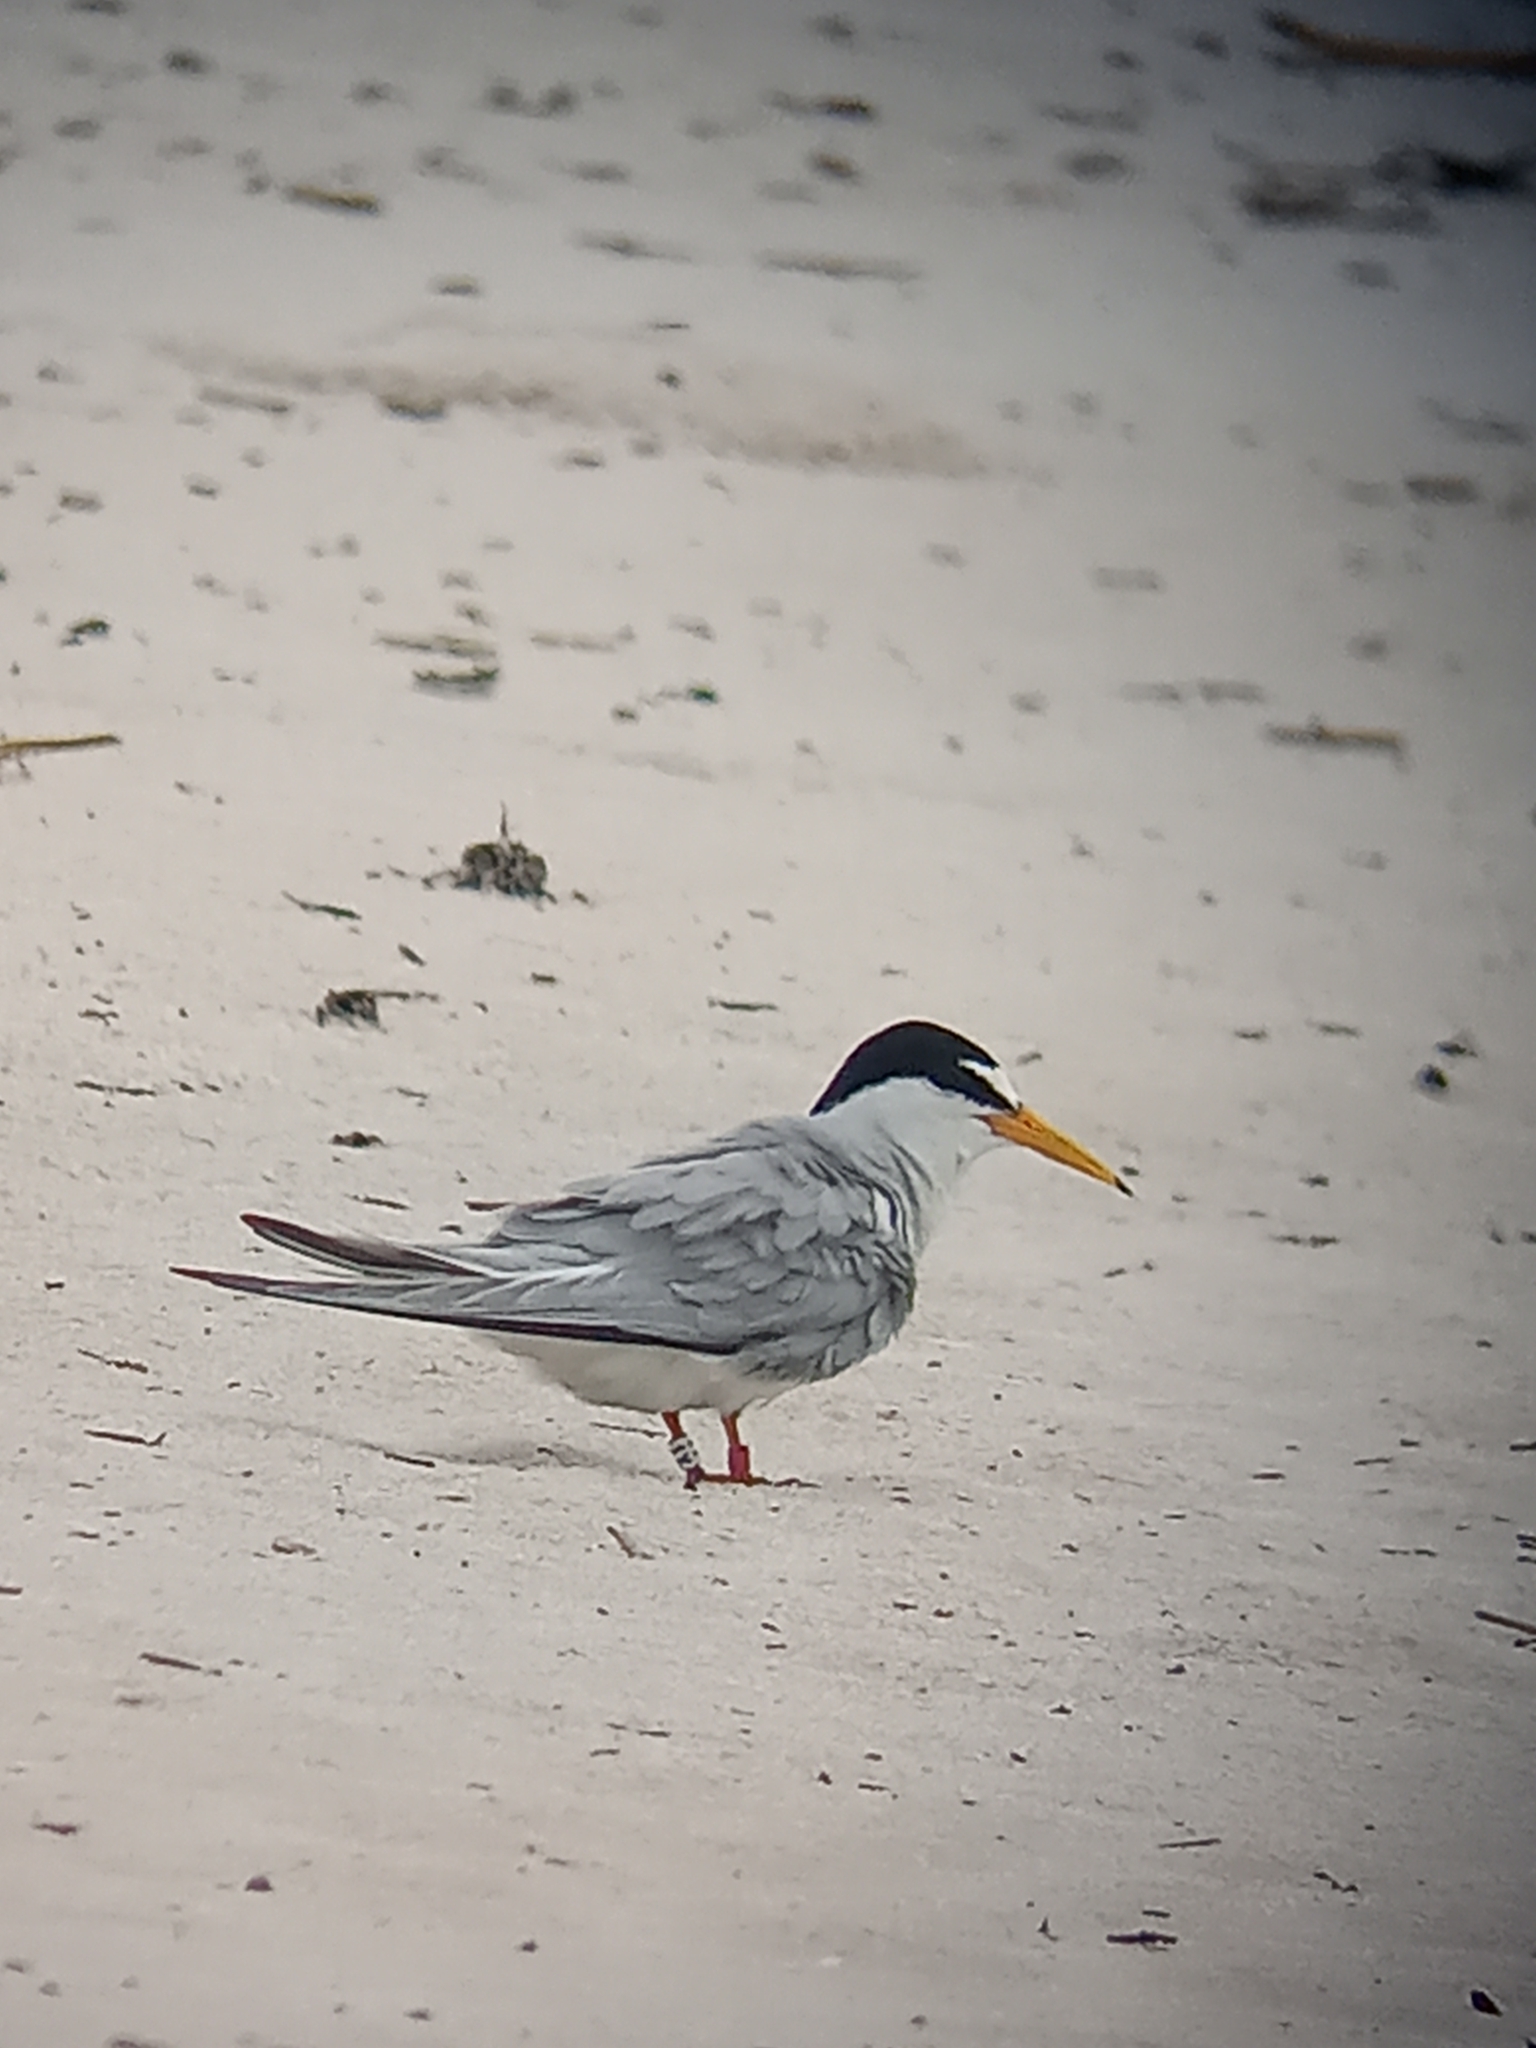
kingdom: Animalia
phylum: Chordata
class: Aves
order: Charadriiformes
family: Laridae
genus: Sternula
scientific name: Sternula antillarum
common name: Least tern
